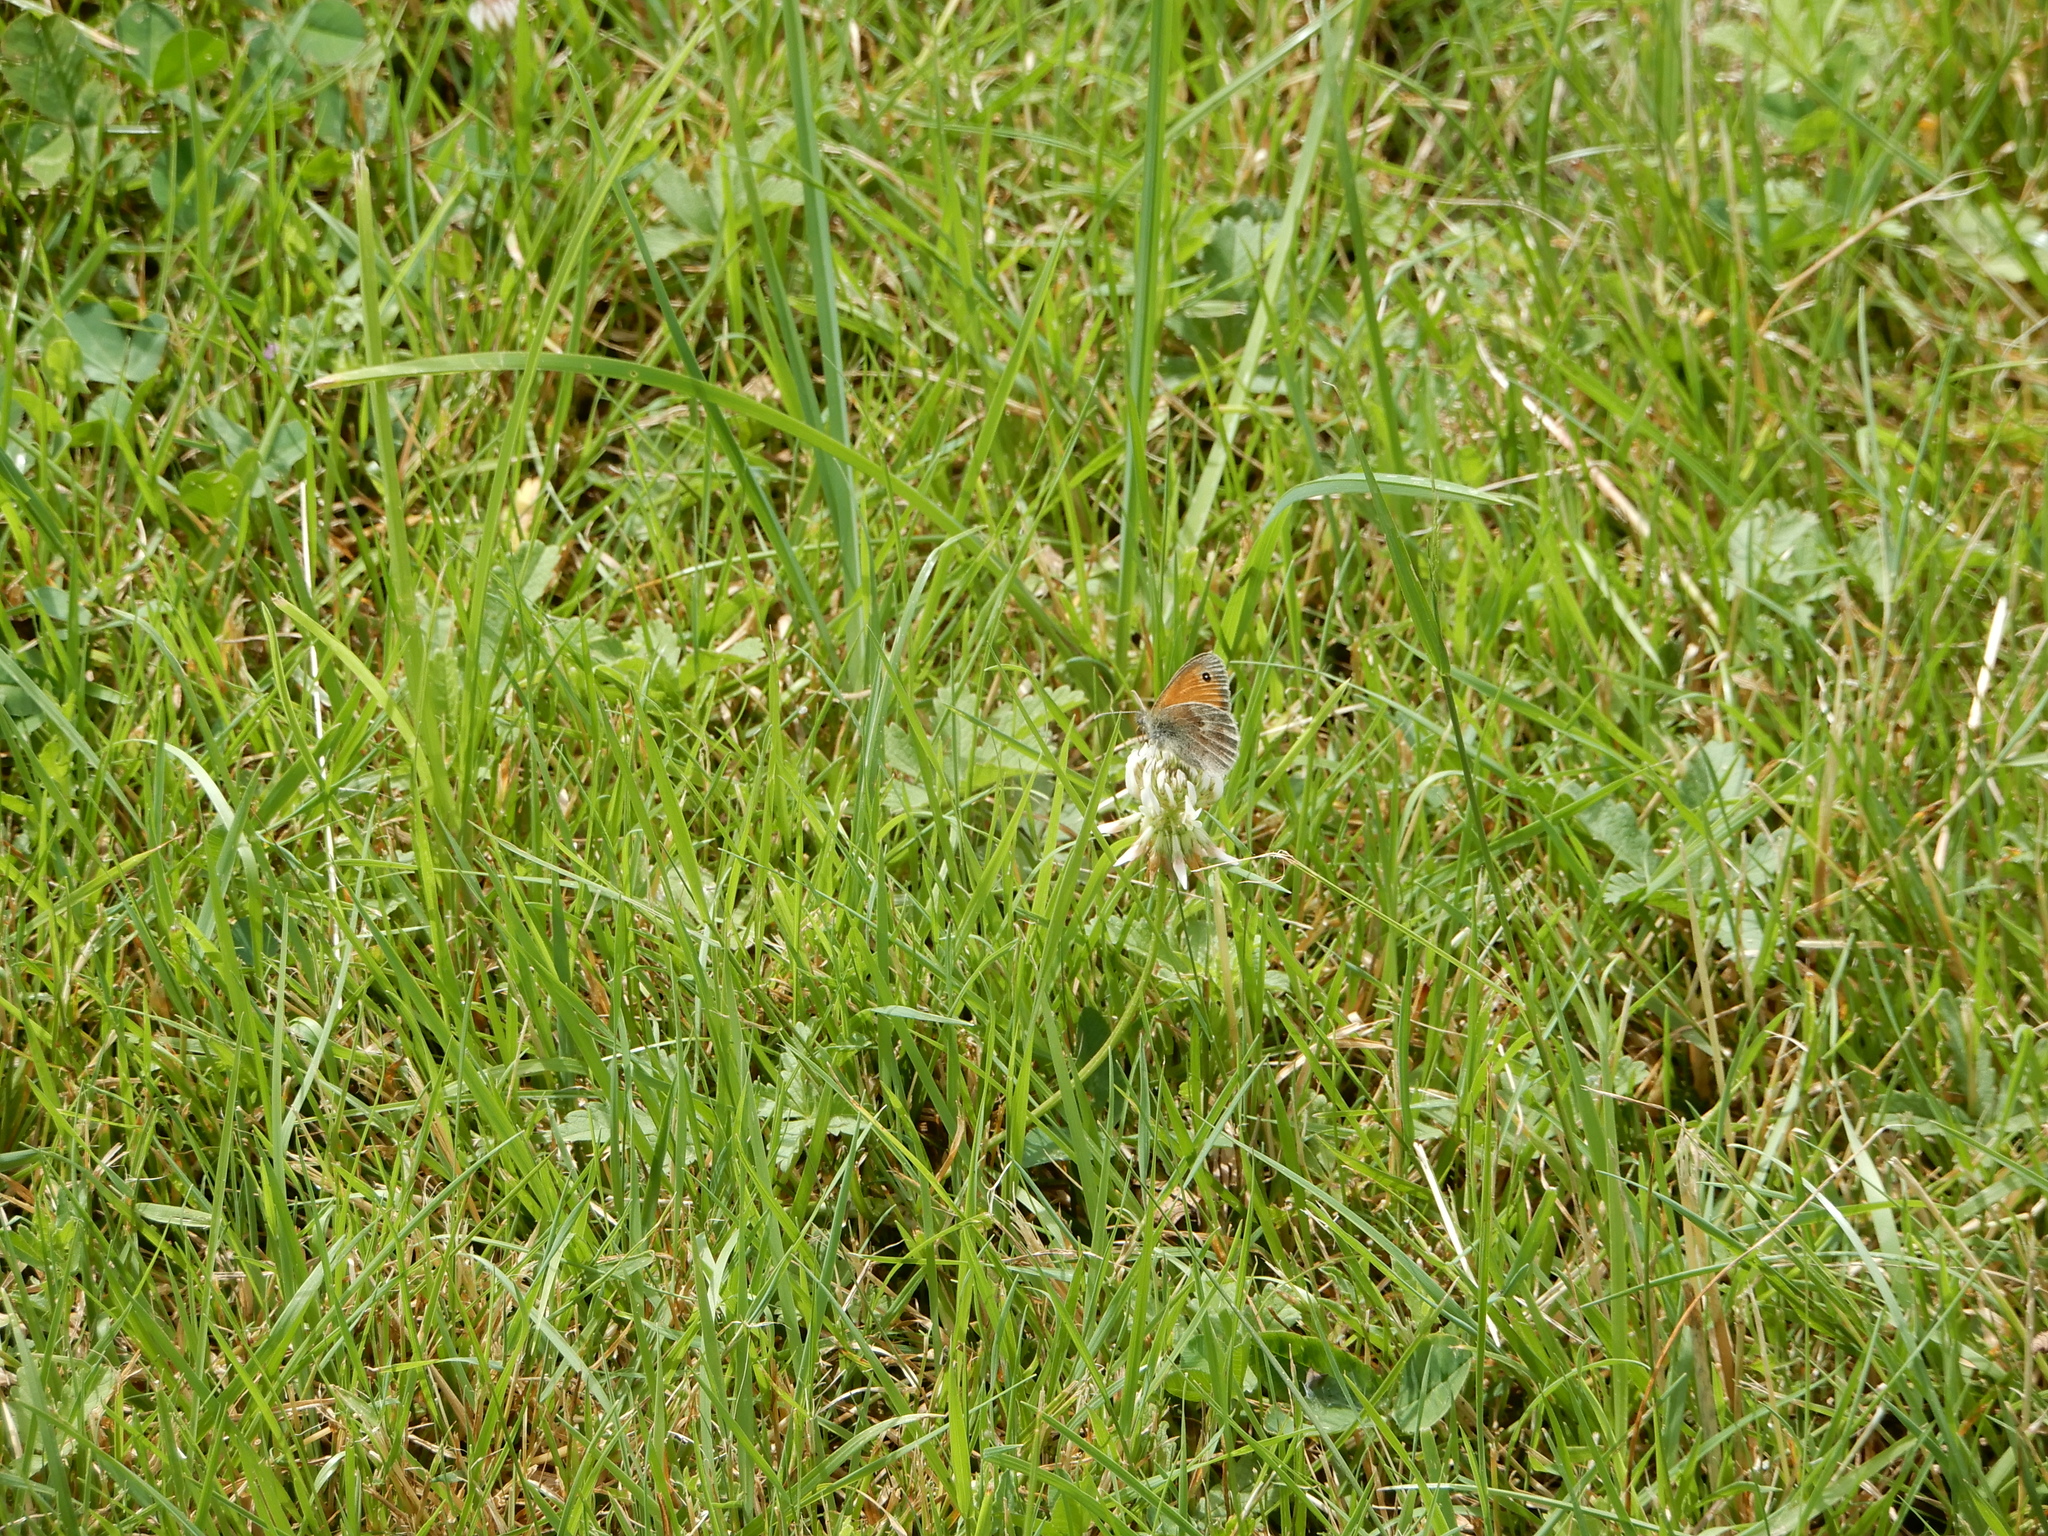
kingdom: Animalia
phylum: Arthropoda
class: Insecta
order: Lepidoptera
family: Nymphalidae
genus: Coenonympha
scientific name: Coenonympha pamphilus
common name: Small heath
